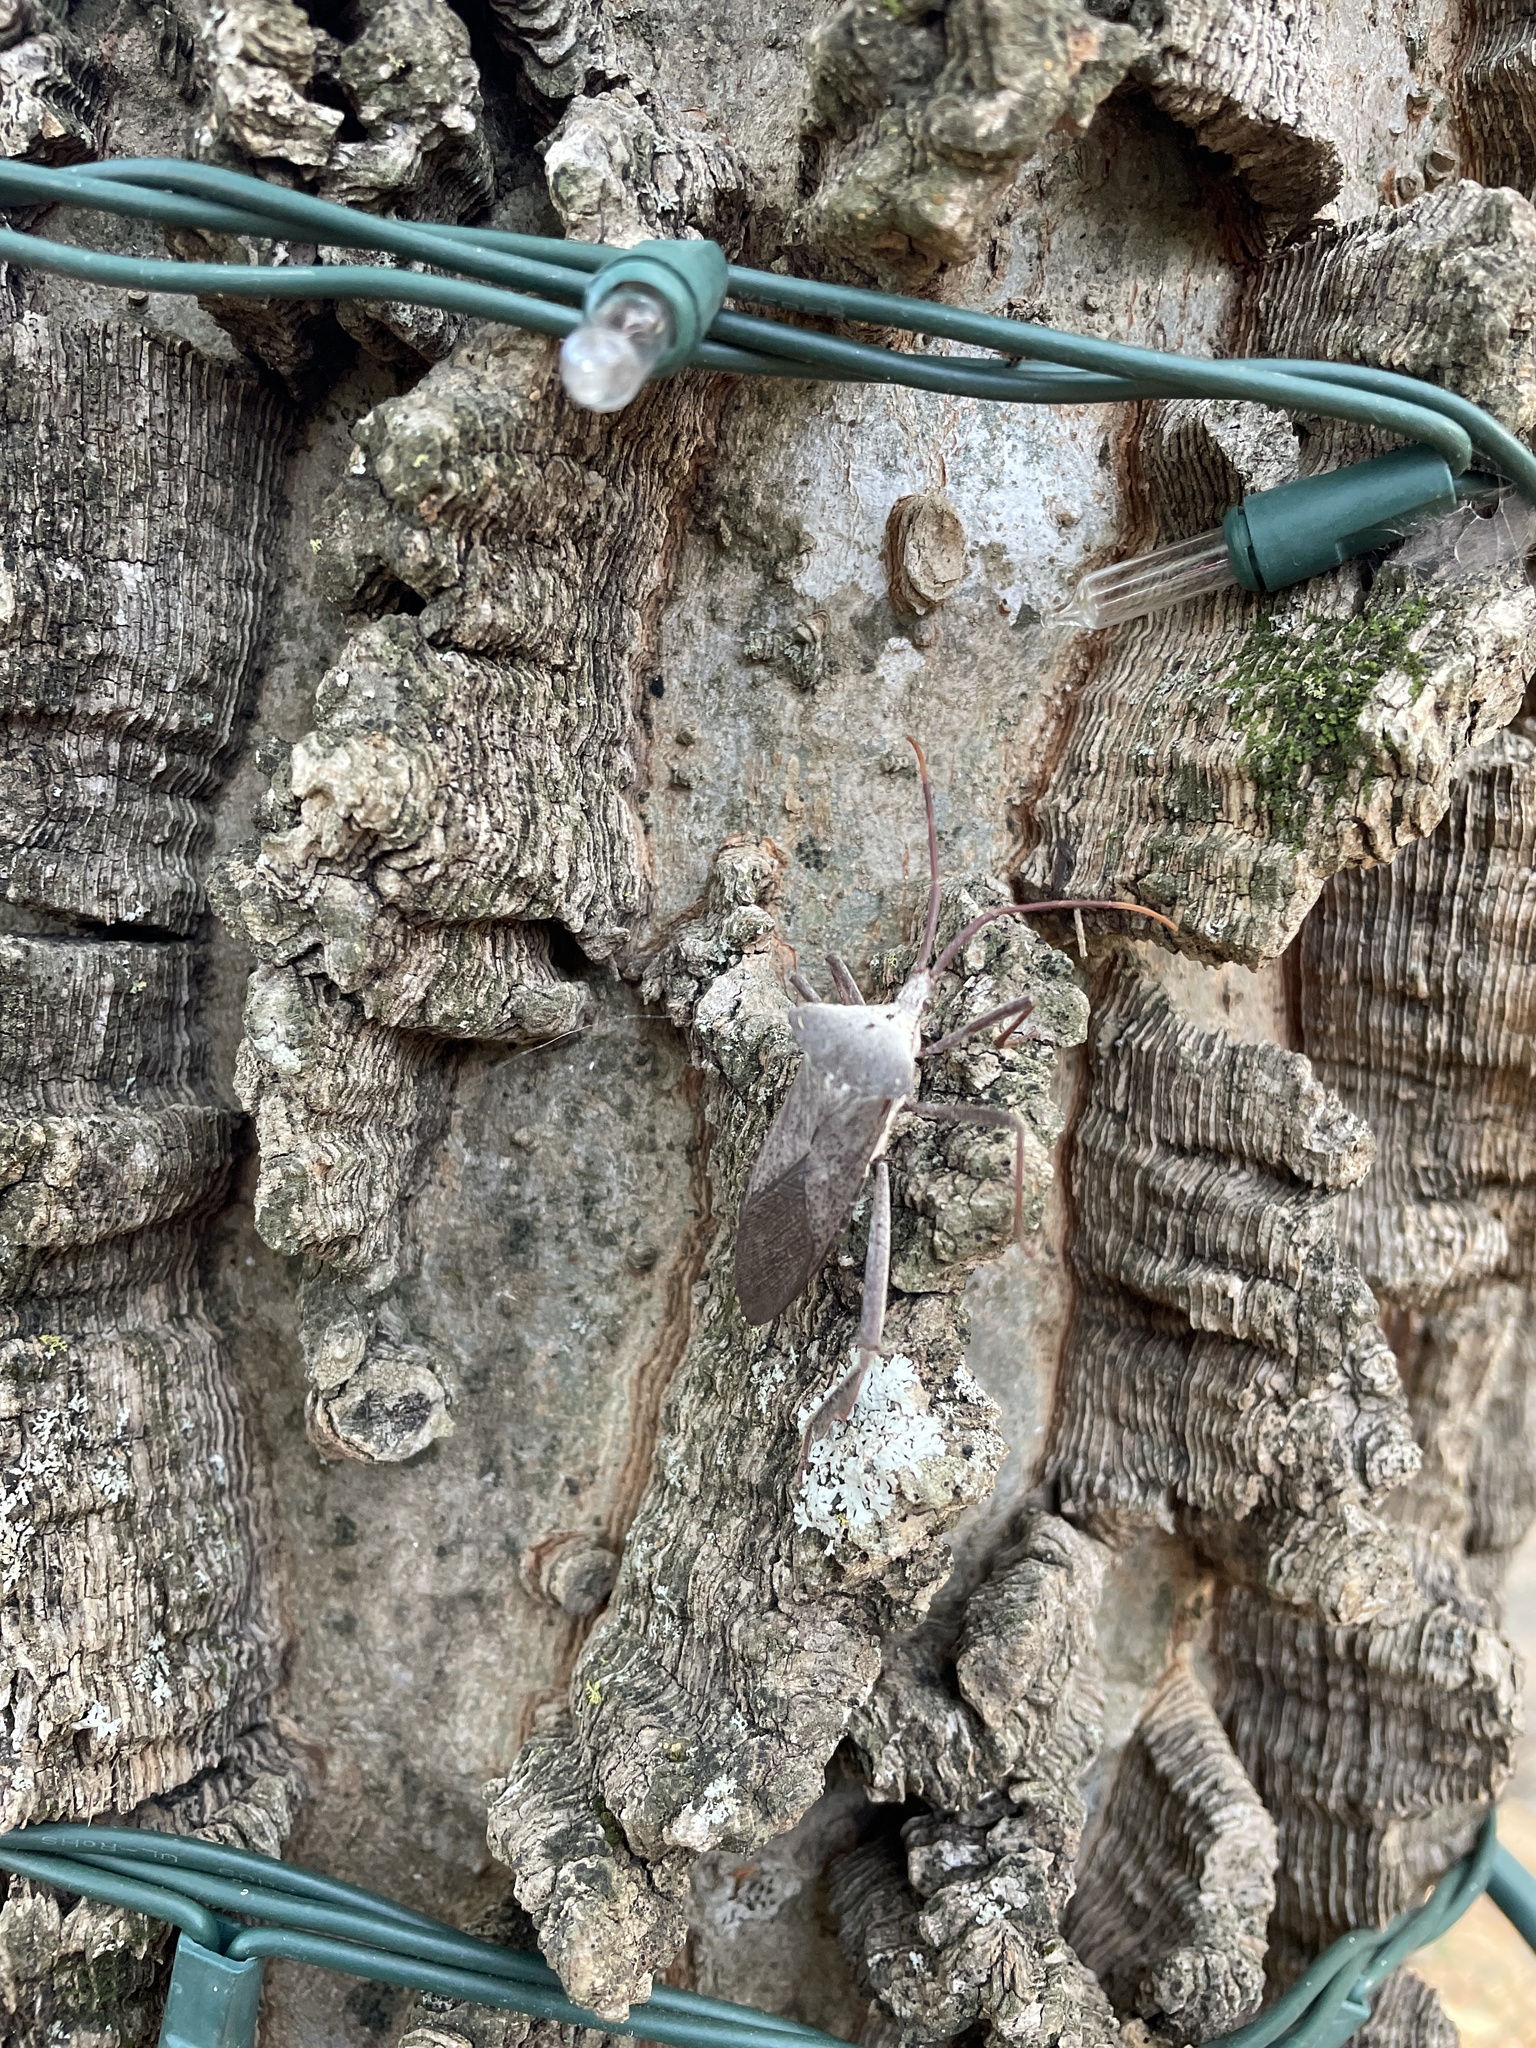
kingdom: Animalia
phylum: Arthropoda
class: Insecta
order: Hemiptera
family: Coreidae
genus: Acanthocephala
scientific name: Acanthocephala declivis
